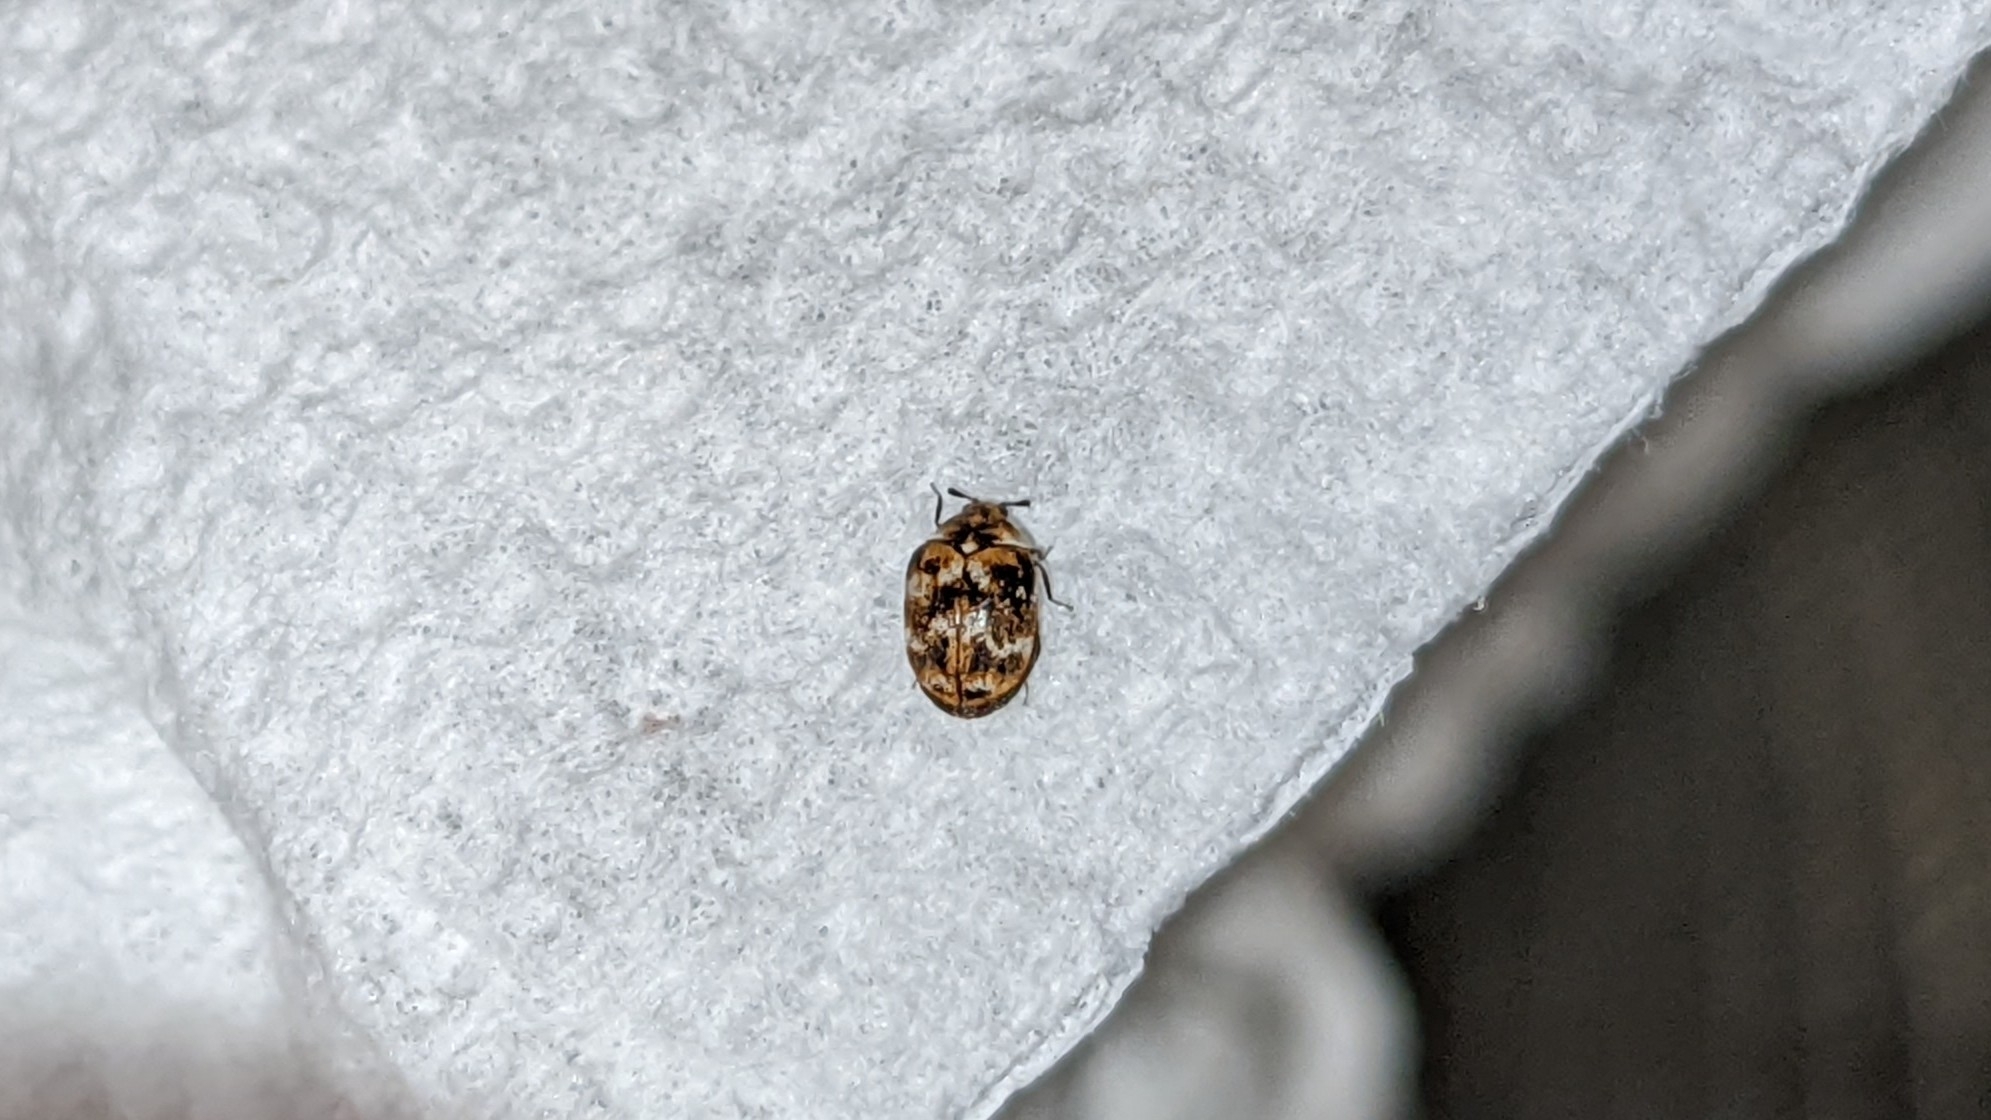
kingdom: Animalia
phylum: Arthropoda
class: Insecta
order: Coleoptera
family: Dermestidae
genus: Anthrenus
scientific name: Anthrenus verbasci
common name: Varied carpet beetle
